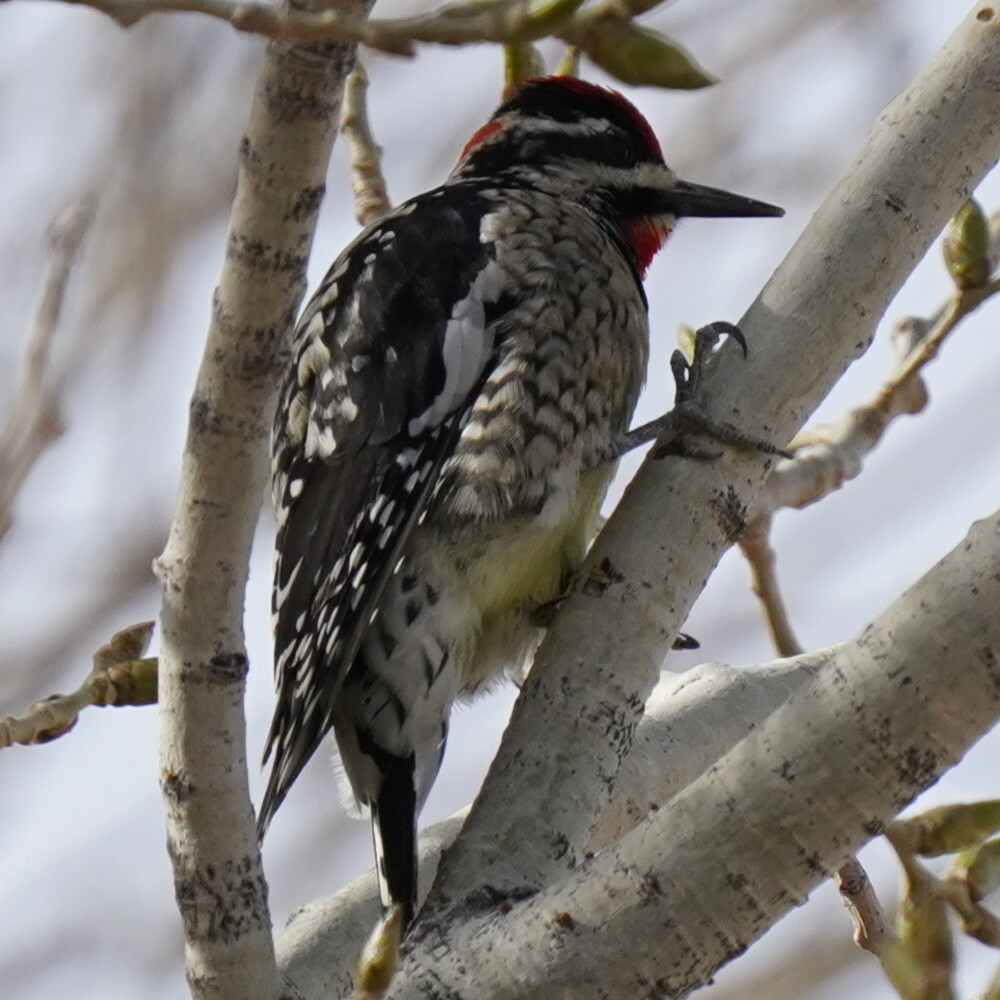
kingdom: Animalia
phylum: Chordata
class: Aves
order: Piciformes
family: Picidae
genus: Sphyrapicus
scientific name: Sphyrapicus nuchalis
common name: Red-naped sapsucker
